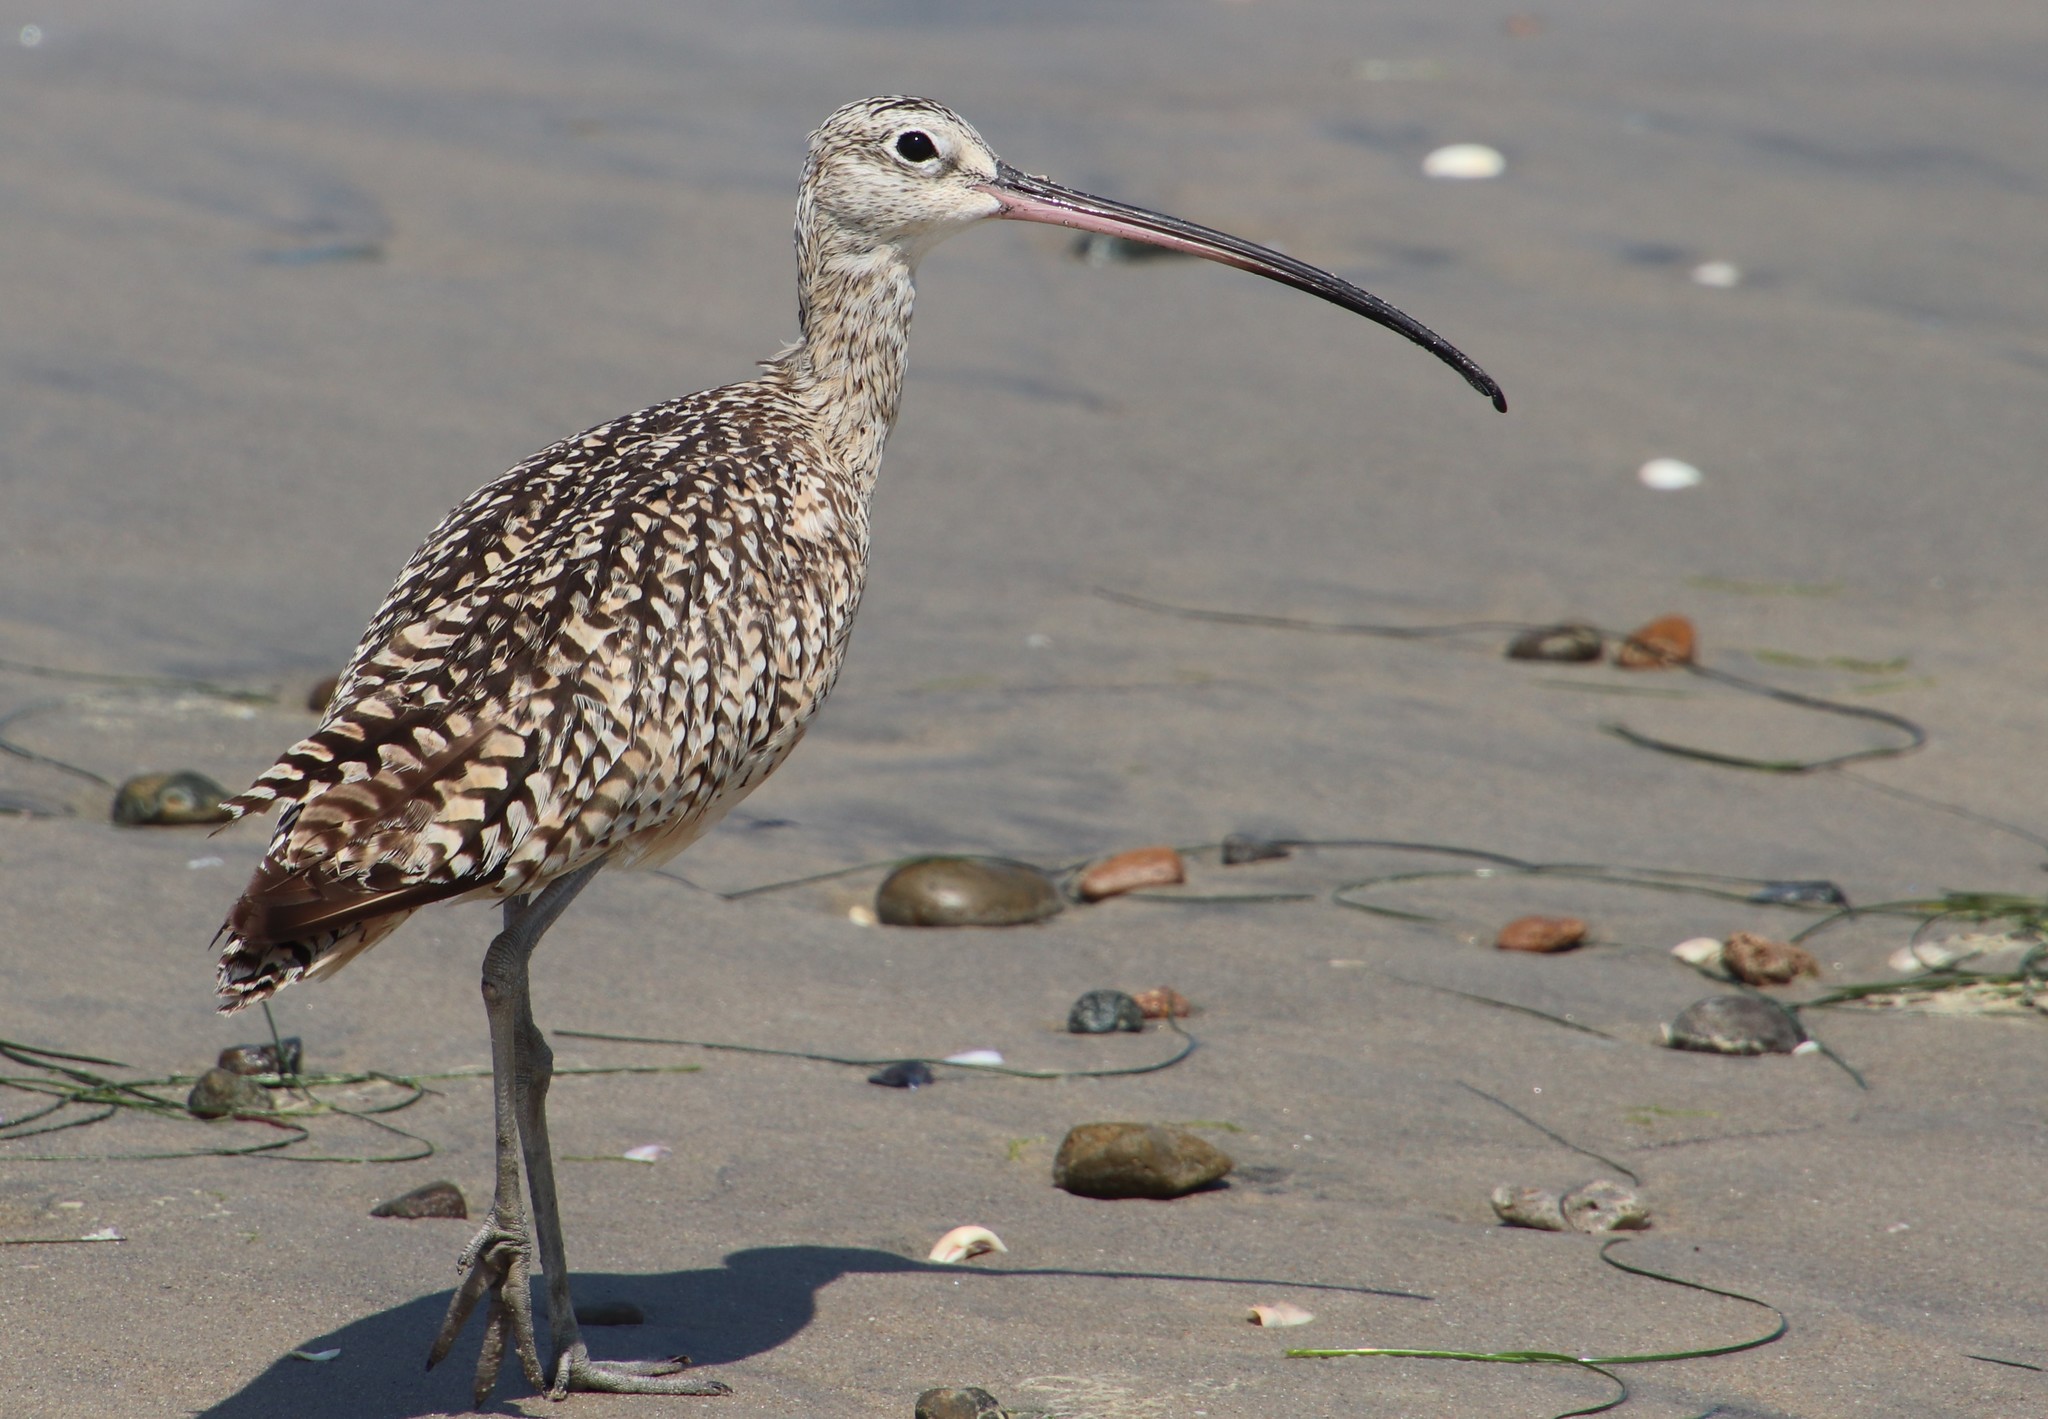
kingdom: Animalia
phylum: Chordata
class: Aves
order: Charadriiformes
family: Scolopacidae
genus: Numenius
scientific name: Numenius americanus
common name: Long-billed curlew
